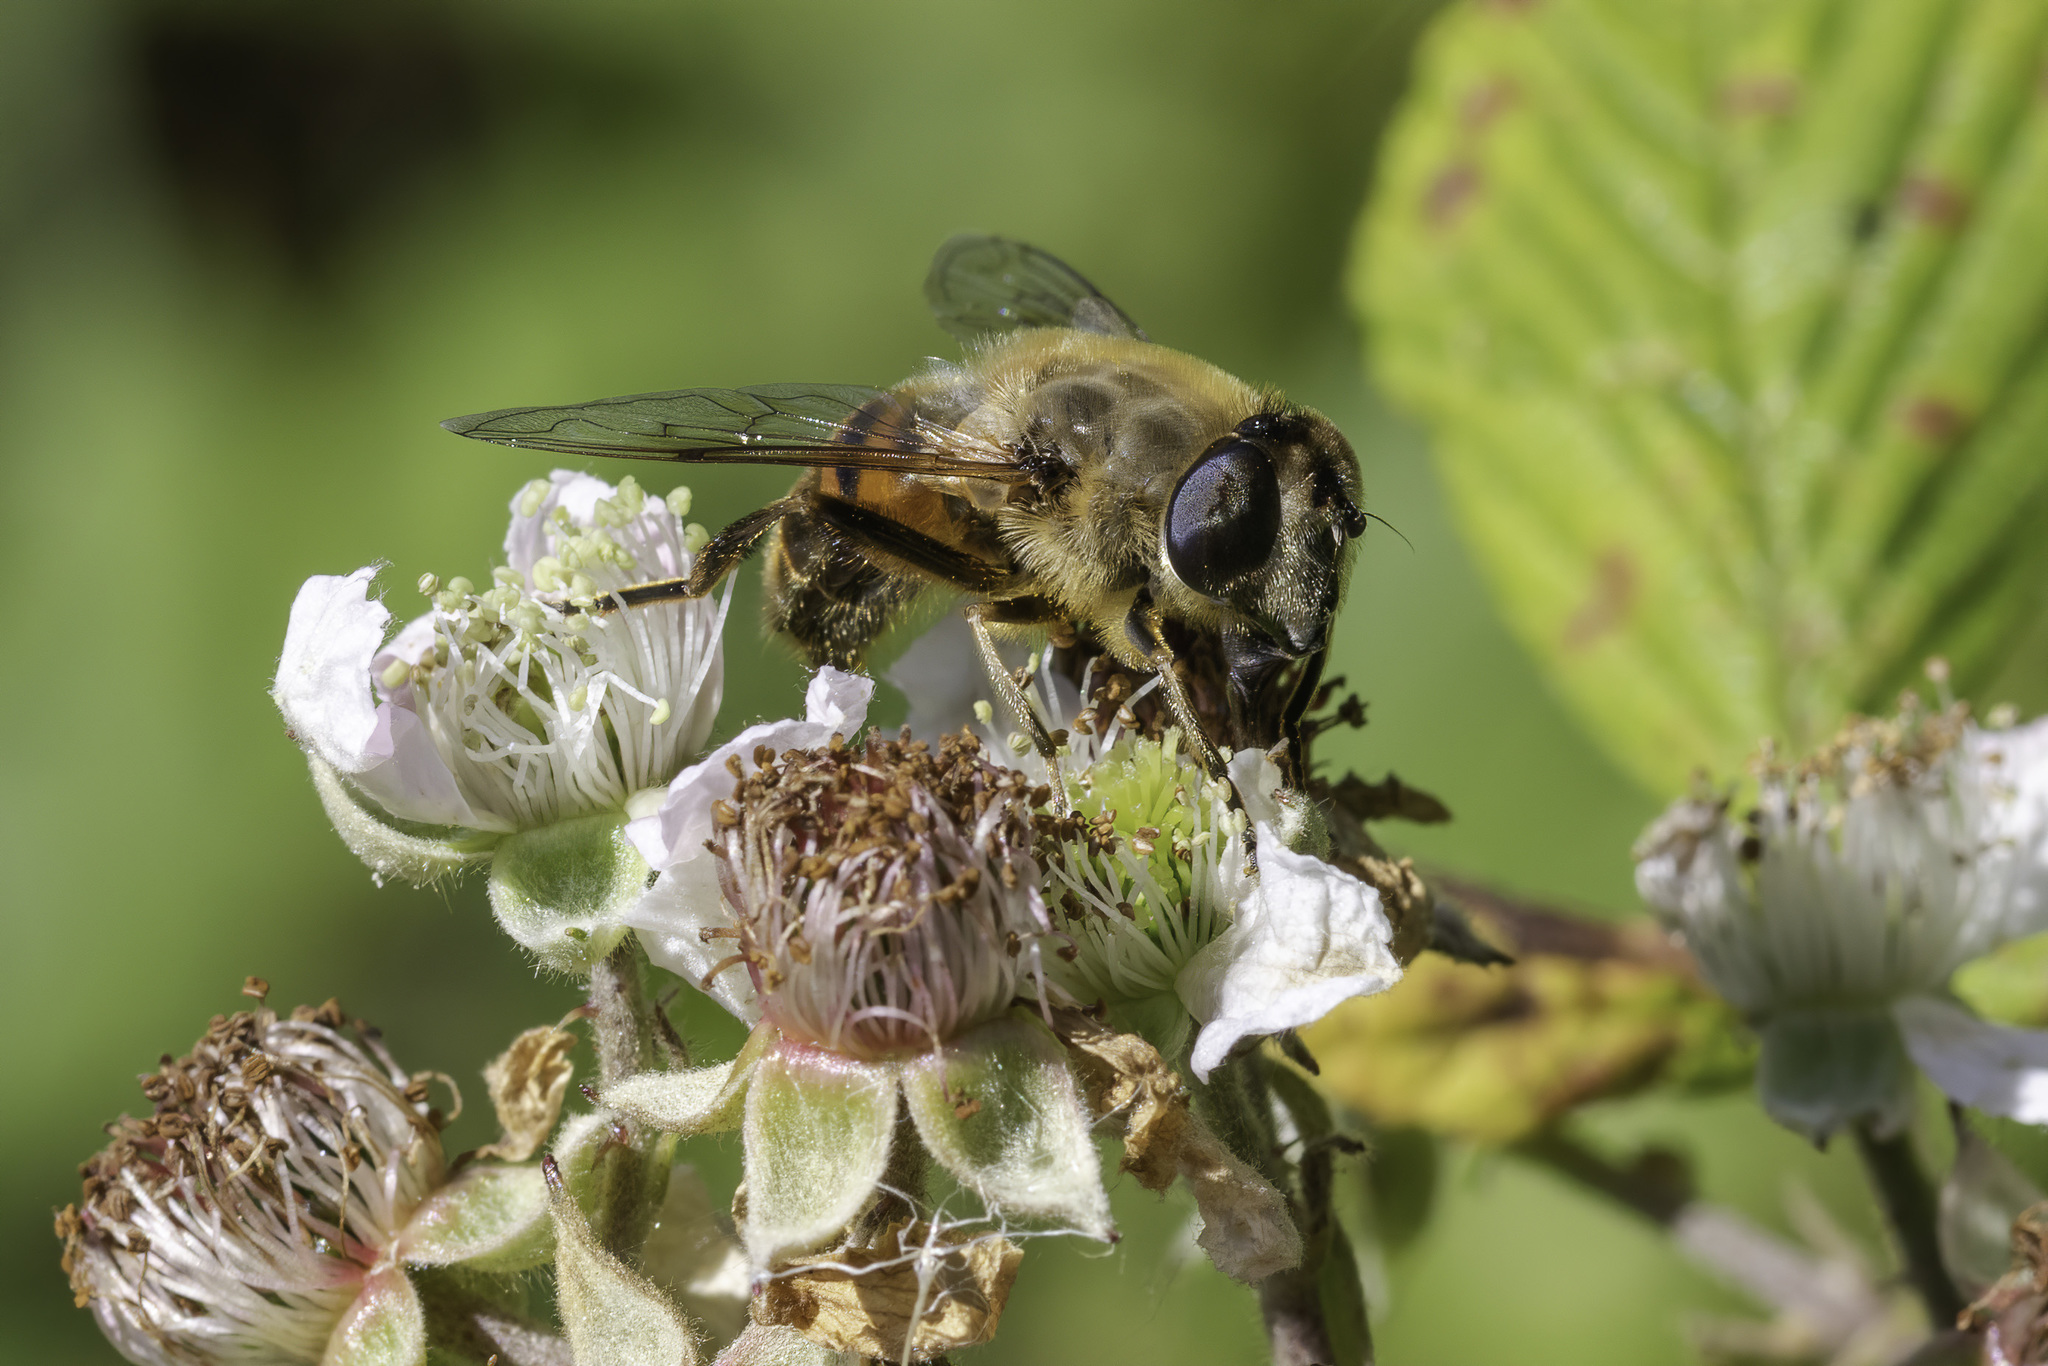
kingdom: Animalia
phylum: Arthropoda
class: Insecta
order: Diptera
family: Syrphidae
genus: Eristalis
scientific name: Eristalis tenax
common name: Drone fly
